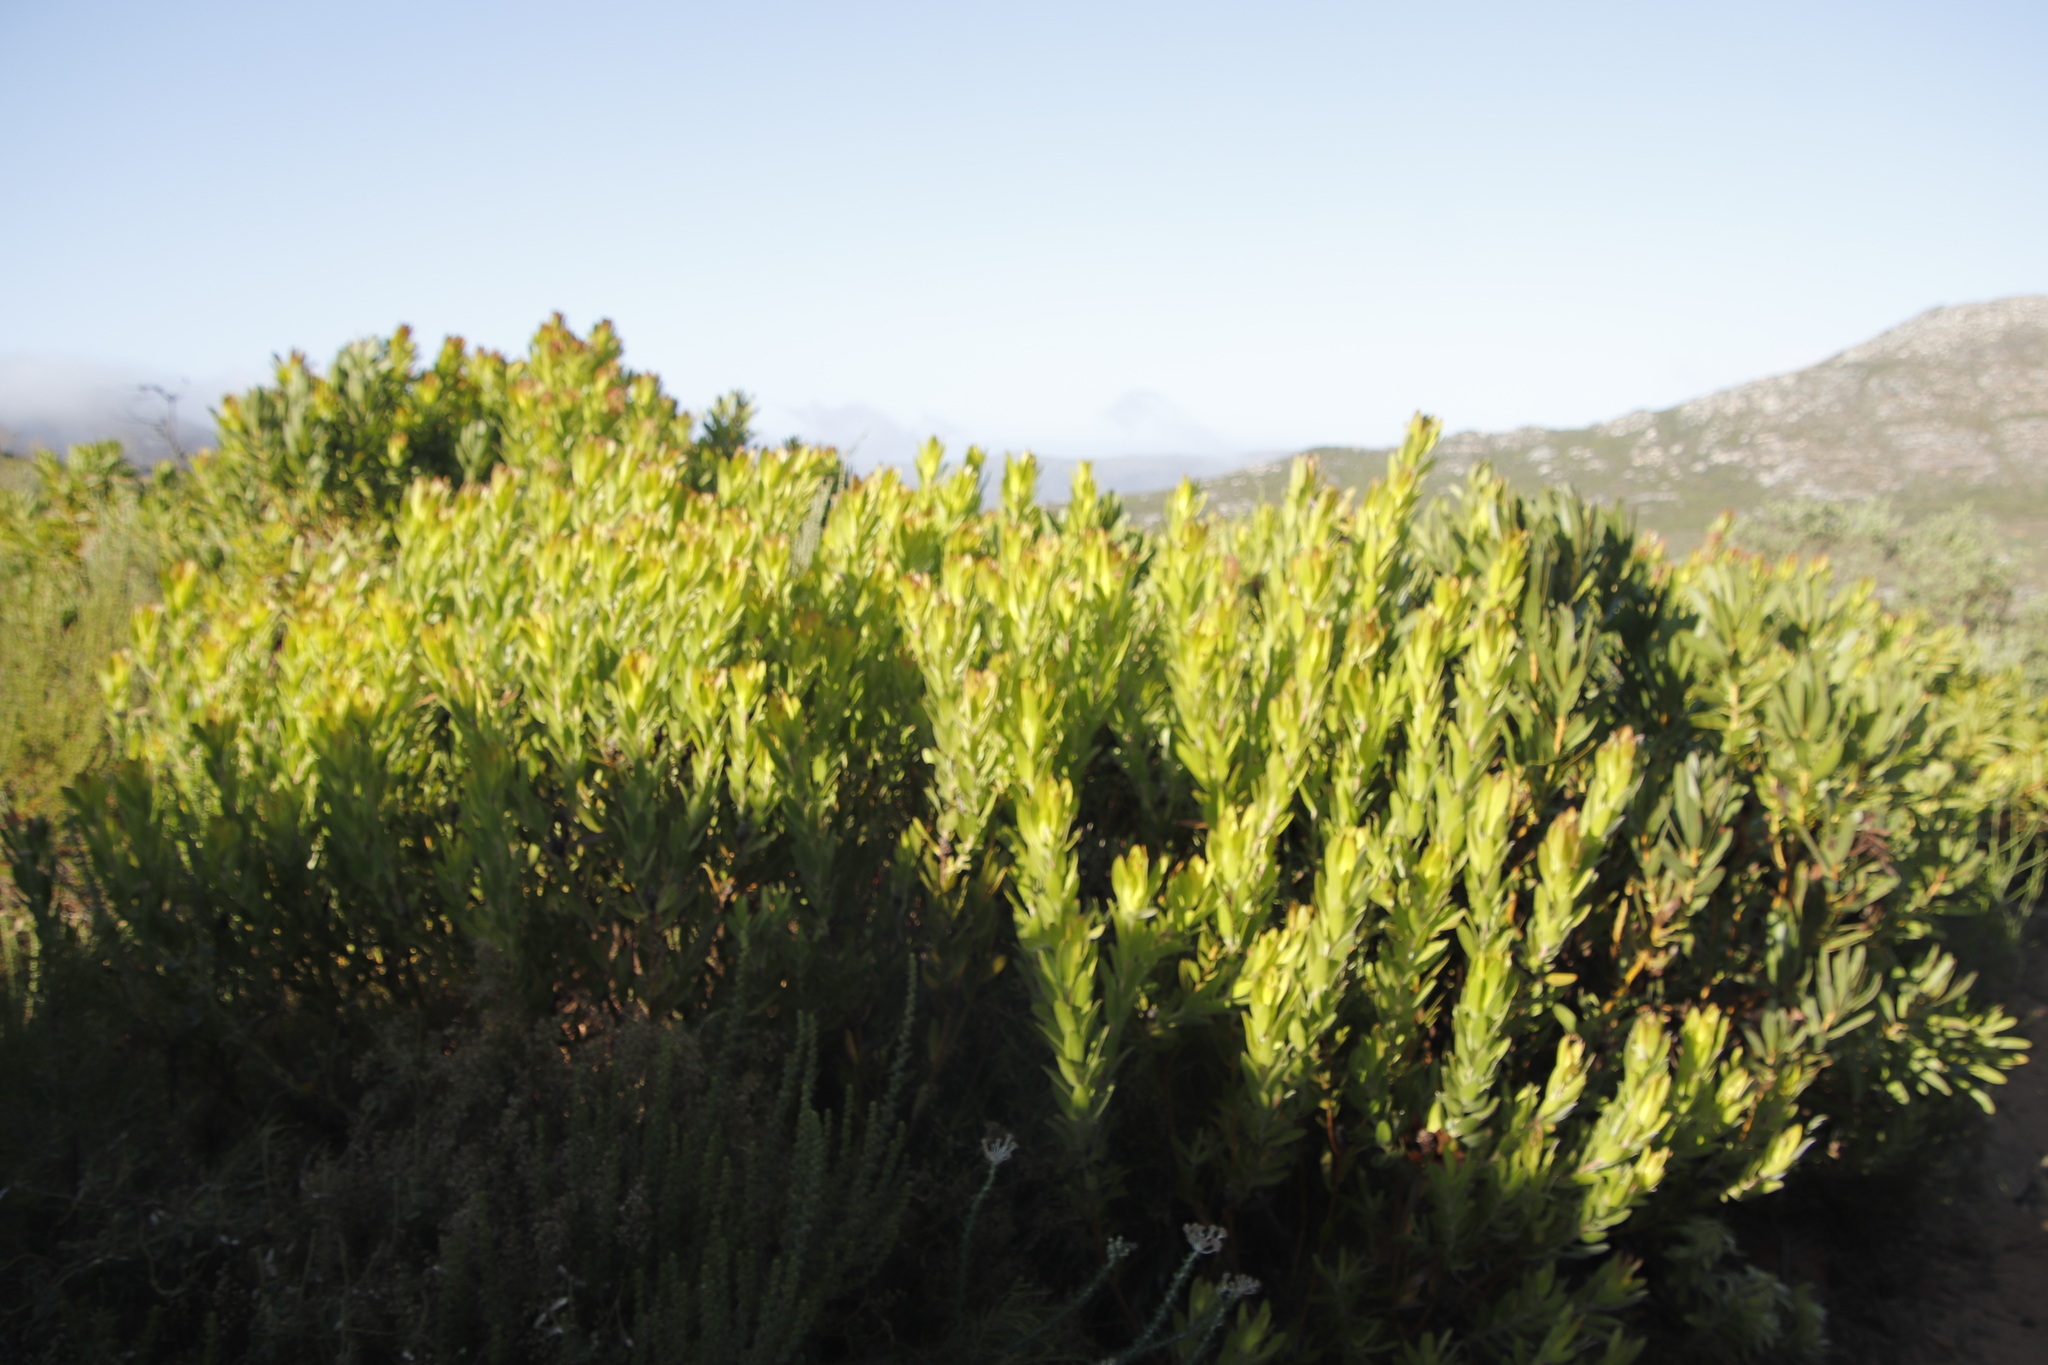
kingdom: Plantae
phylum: Tracheophyta
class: Magnoliopsida
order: Proteales
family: Proteaceae
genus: Leucadendron
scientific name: Leucadendron laureolum
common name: Golden sunshinebush
